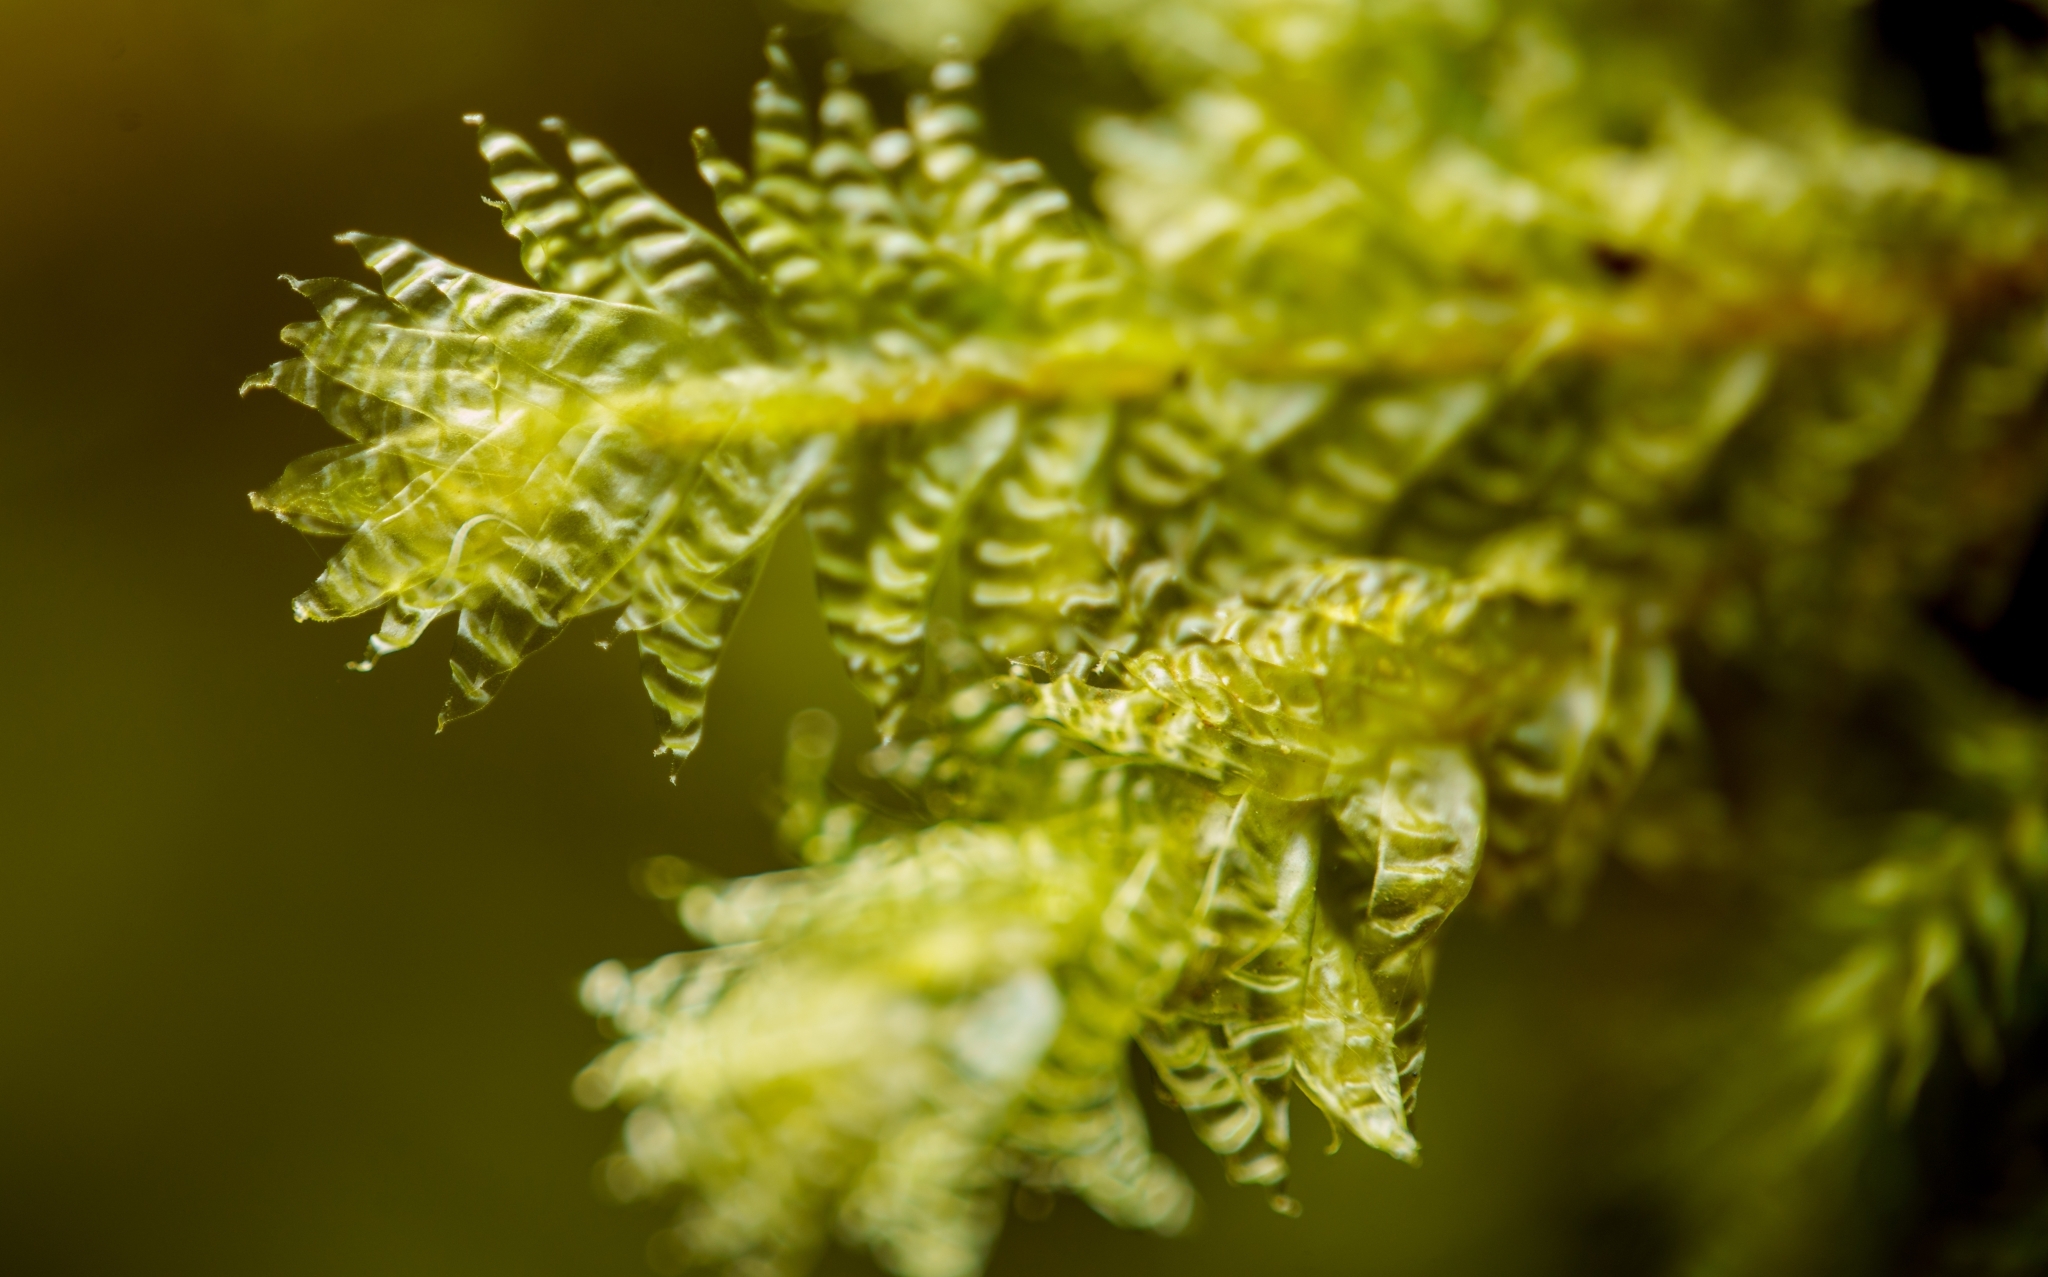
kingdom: Plantae
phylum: Bryophyta
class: Bryopsida
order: Hypnales
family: Neckeraceae
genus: Neckera
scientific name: Neckera douglasii
